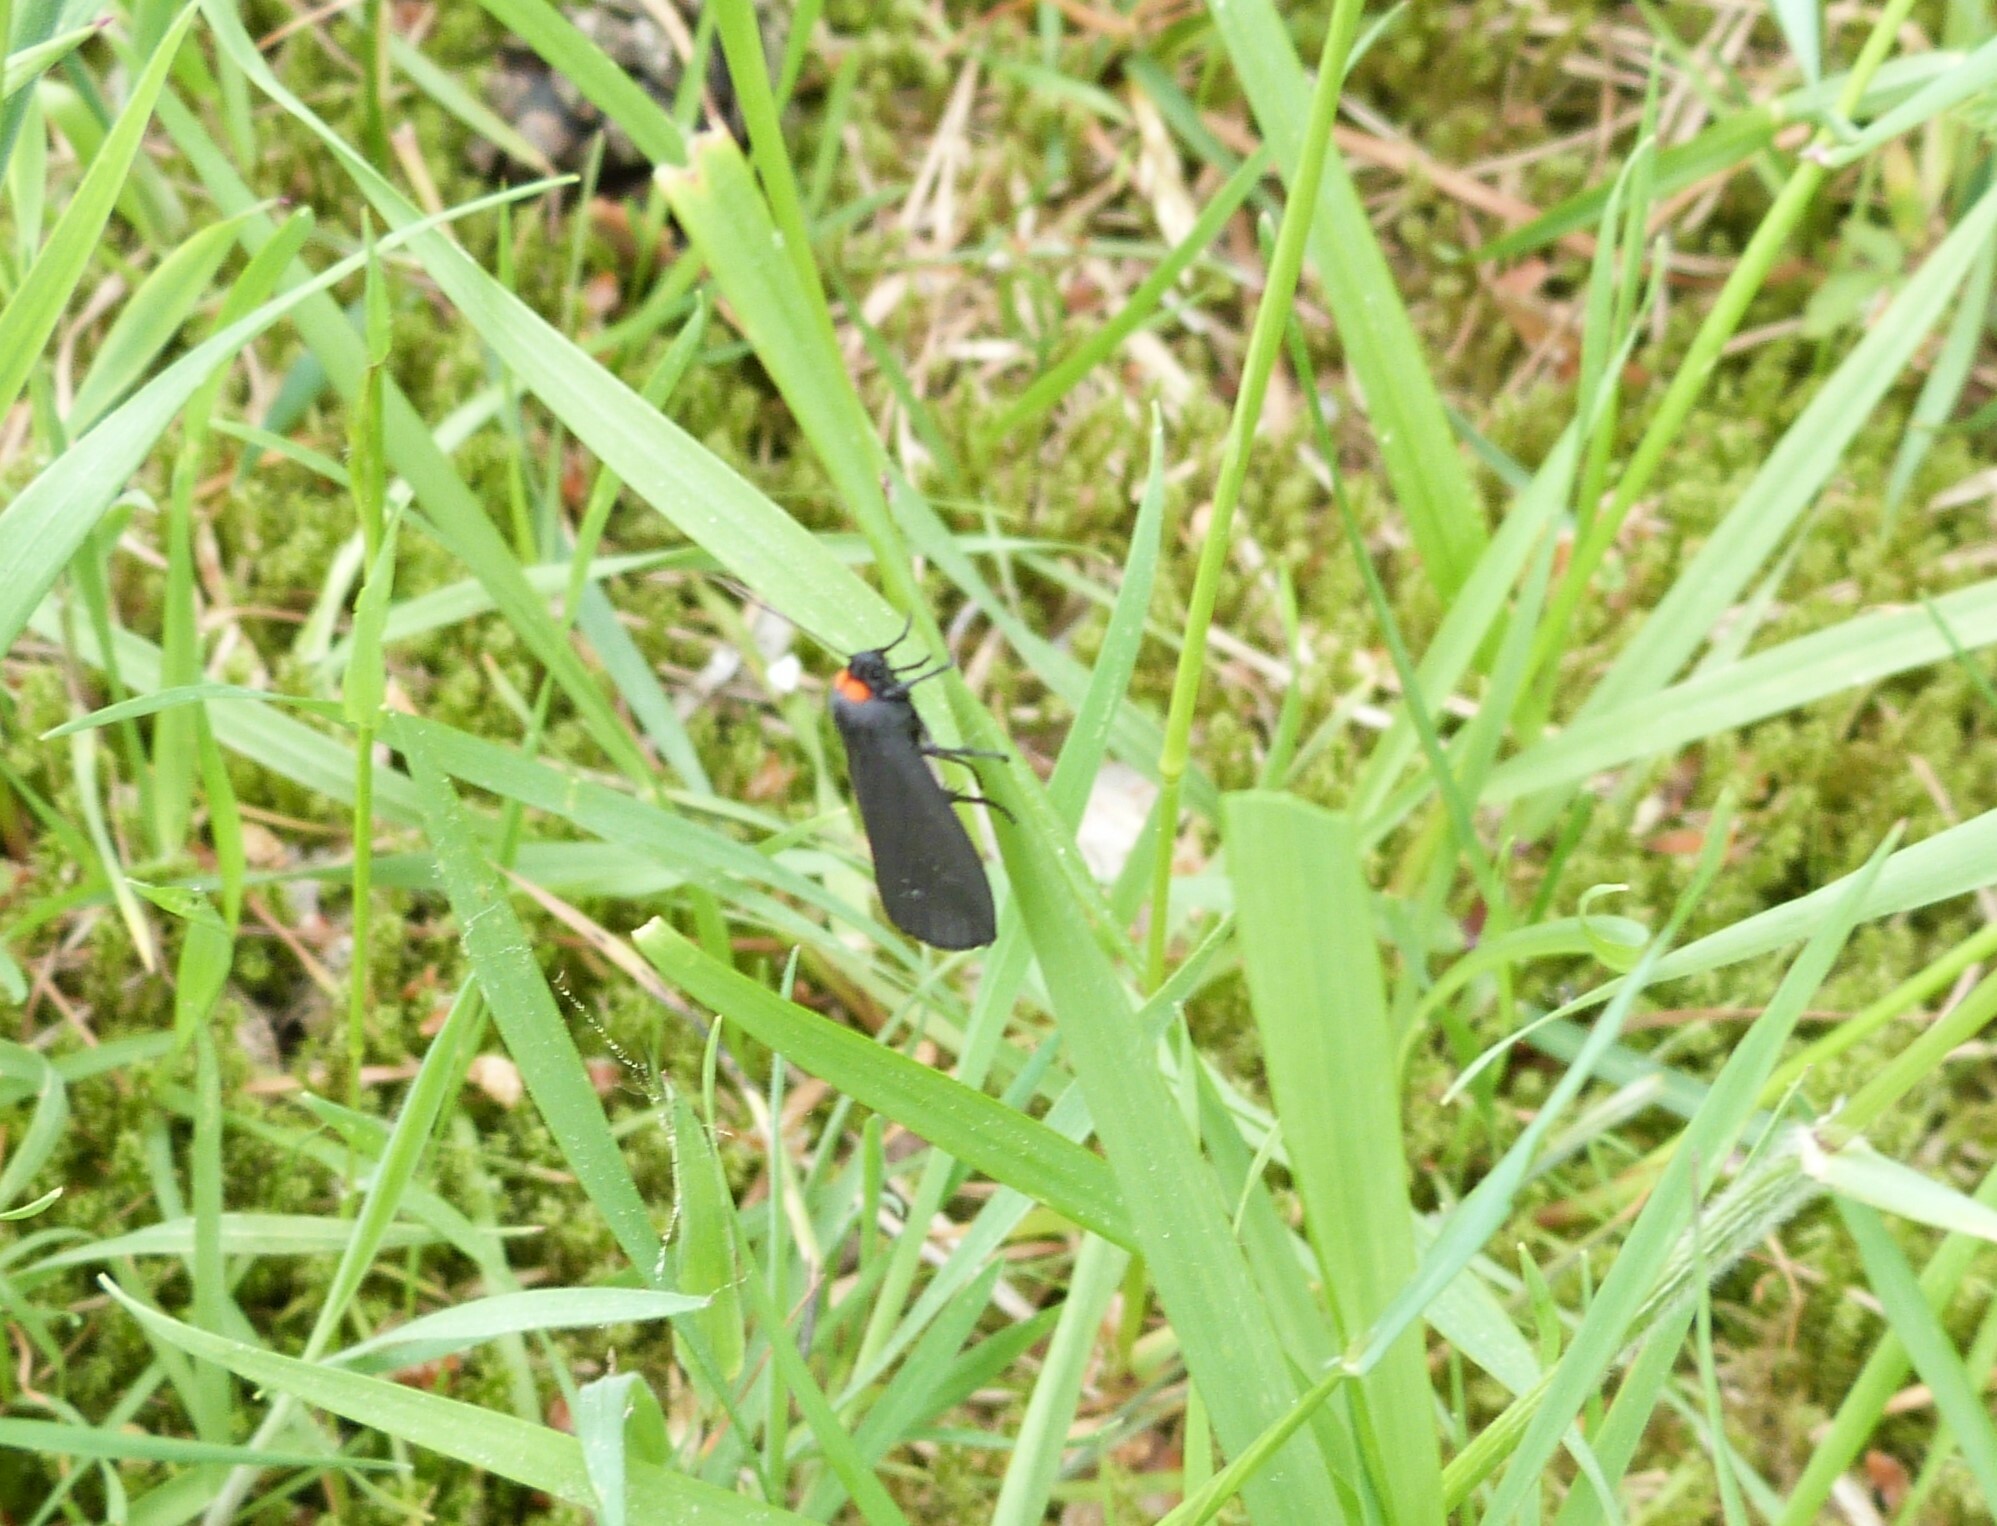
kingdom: Animalia
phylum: Arthropoda
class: Insecta
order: Lepidoptera
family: Erebidae
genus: Atolmis
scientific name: Atolmis rubricollis
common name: Red-necked footman
